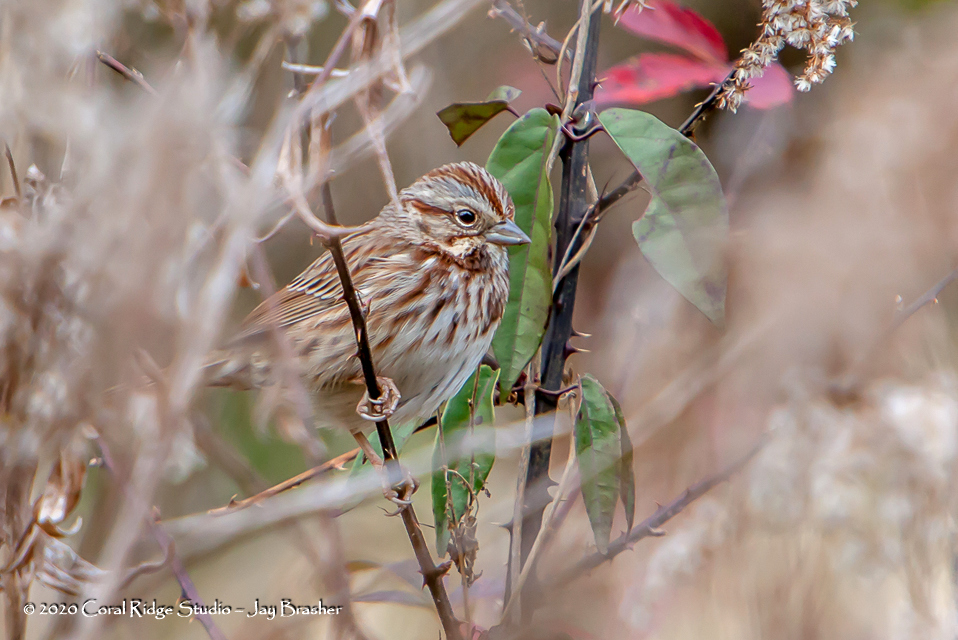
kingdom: Animalia
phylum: Chordata
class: Aves
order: Passeriformes
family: Passerellidae
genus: Melospiza
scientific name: Melospiza melodia
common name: Song sparrow
